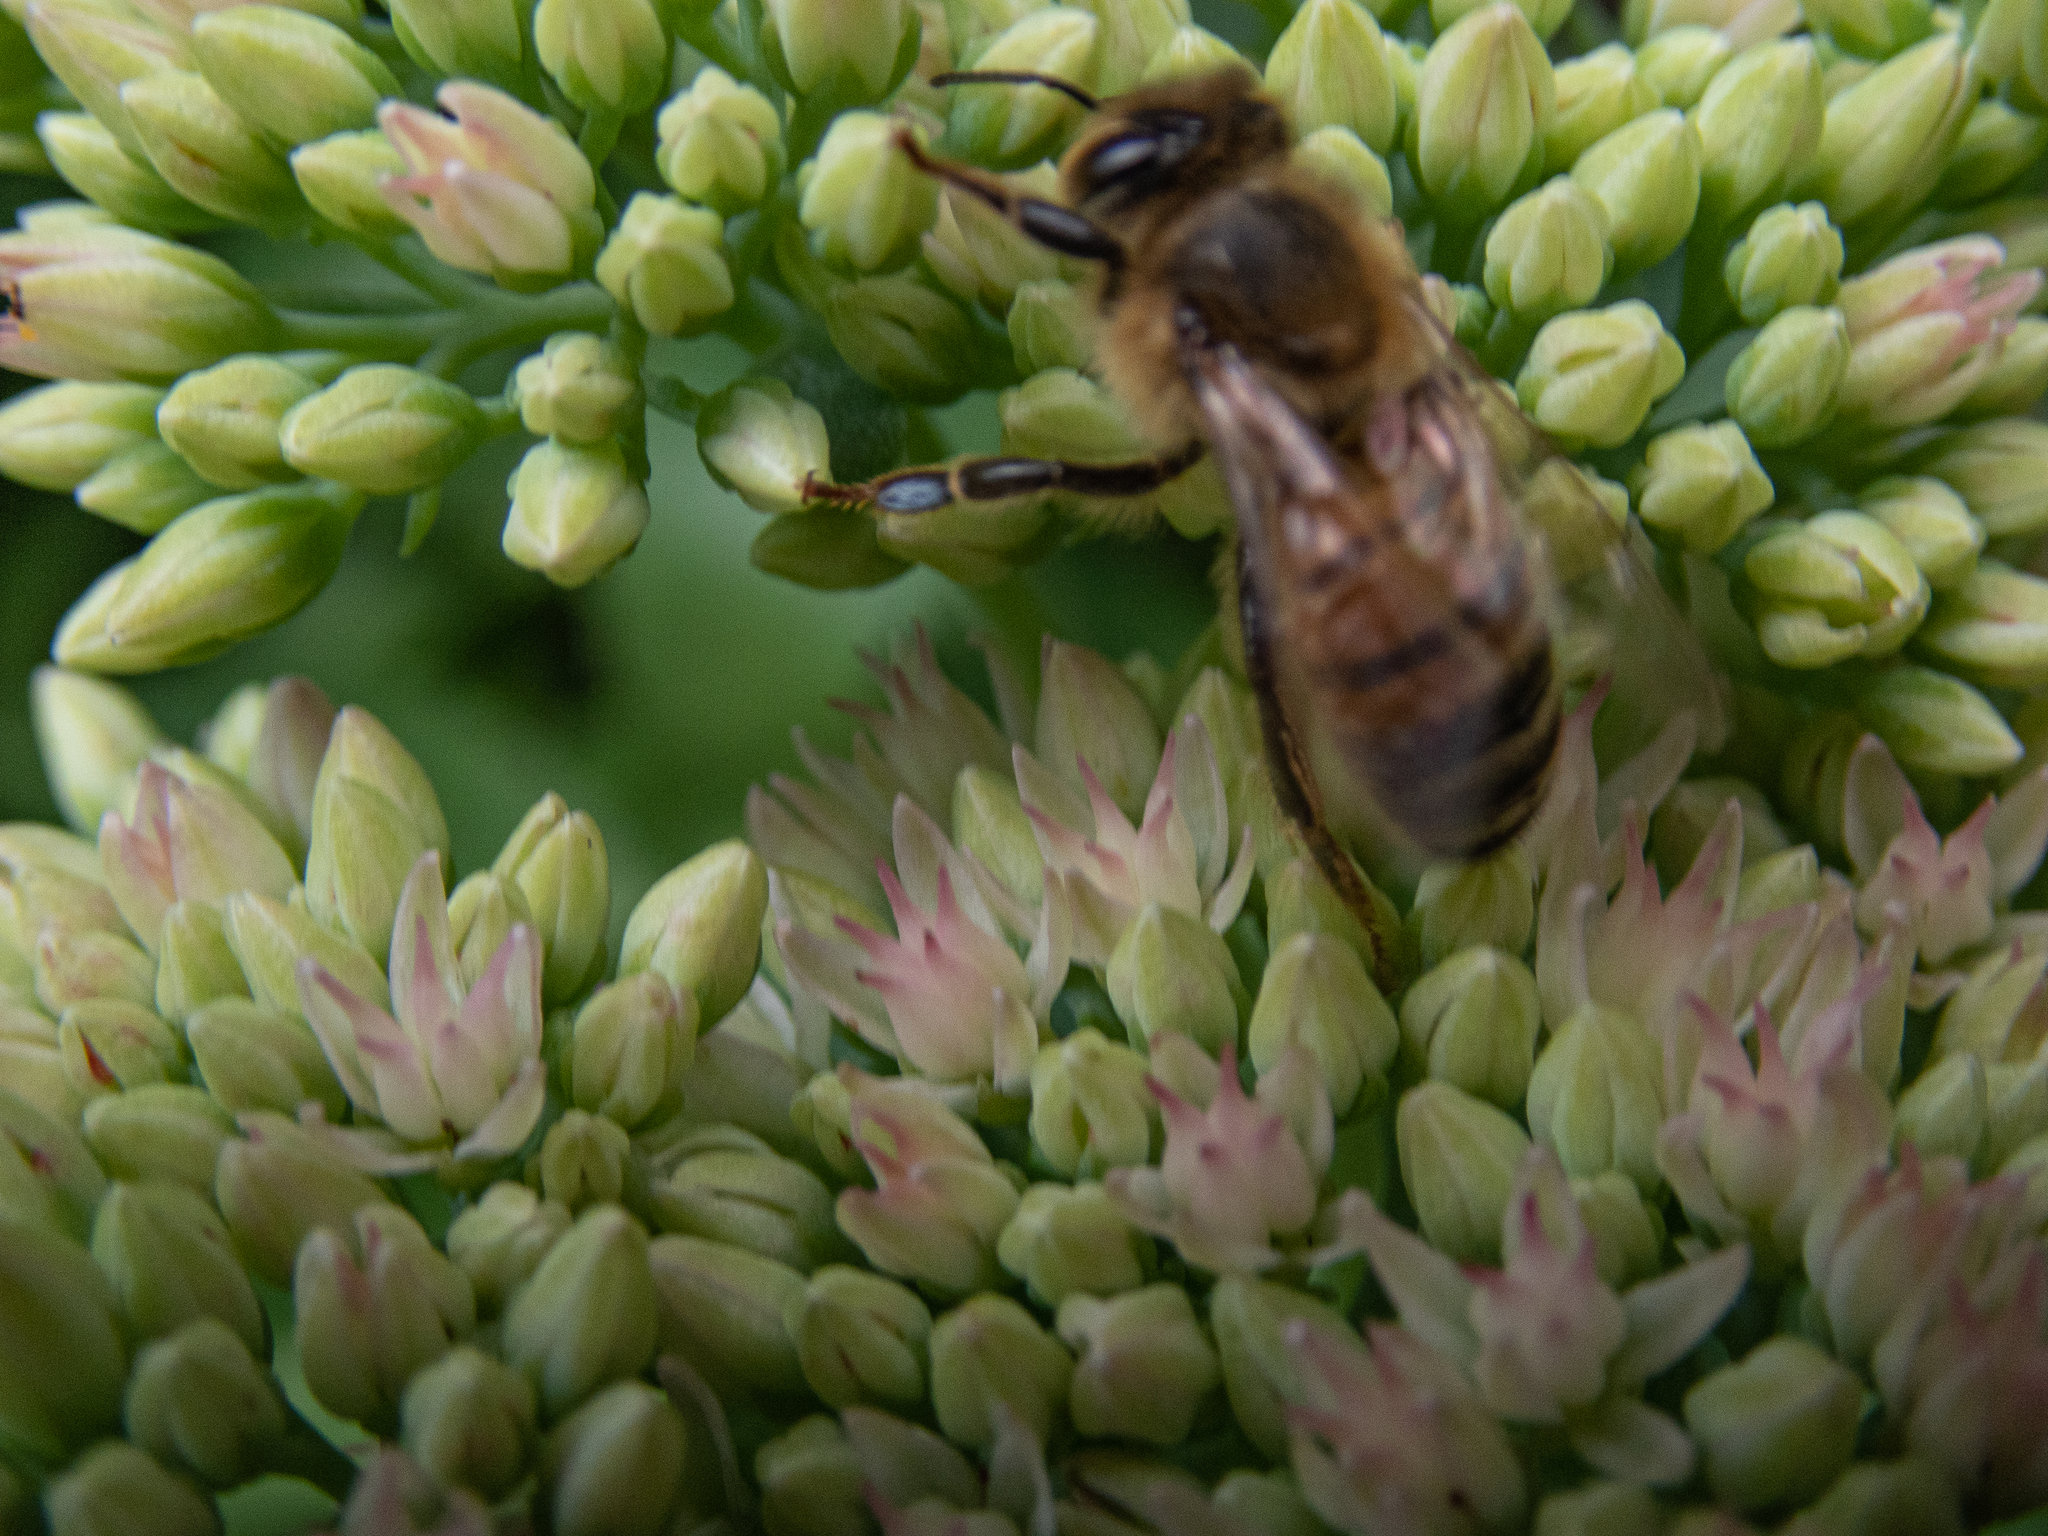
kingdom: Animalia
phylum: Arthropoda
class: Insecta
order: Hymenoptera
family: Apidae
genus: Apis
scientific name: Apis mellifera
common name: Honey bee
